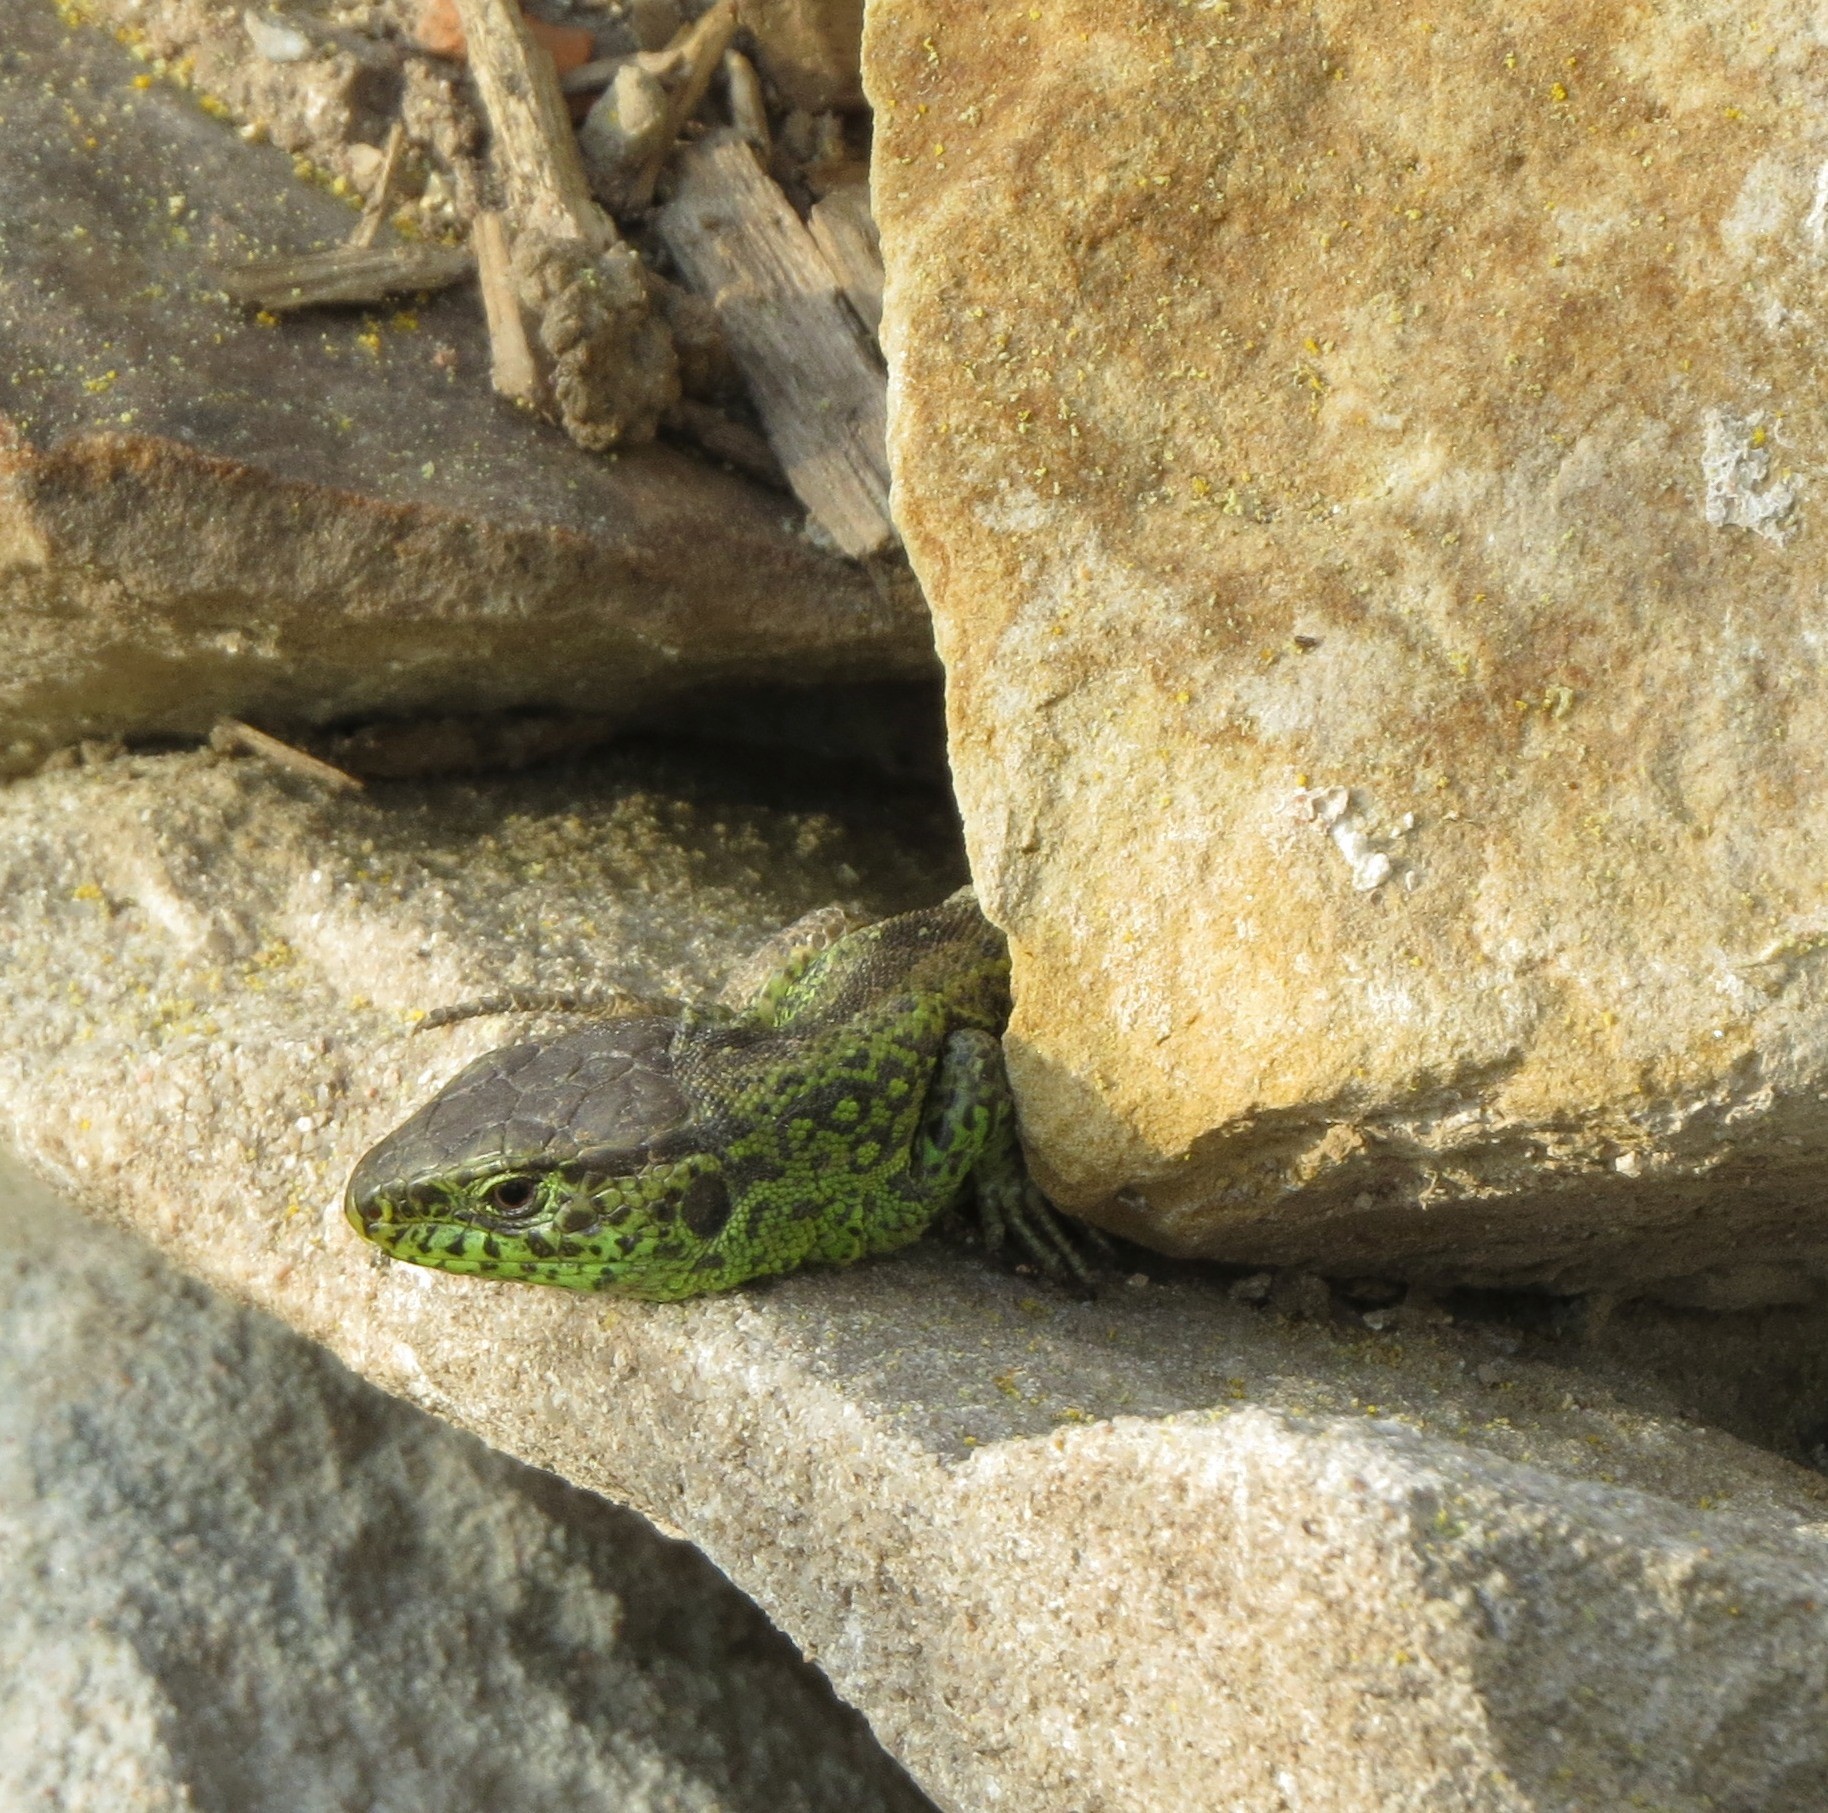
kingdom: Animalia
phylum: Chordata
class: Squamata
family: Lacertidae
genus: Lacerta
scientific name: Lacerta agilis
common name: Sand lizard
